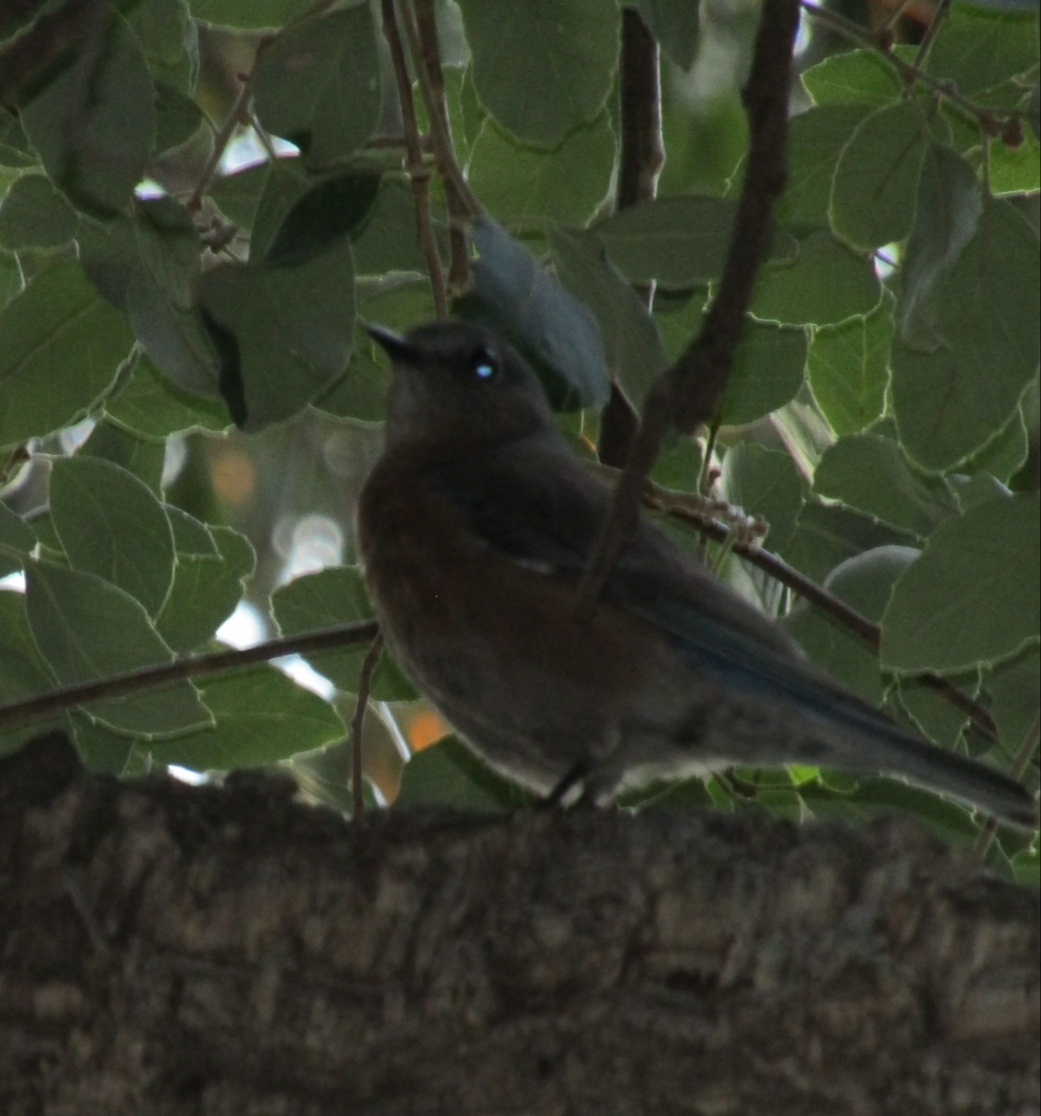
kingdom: Animalia
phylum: Chordata
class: Aves
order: Passeriformes
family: Turdidae
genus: Sialia
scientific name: Sialia mexicana
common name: Western bluebird
